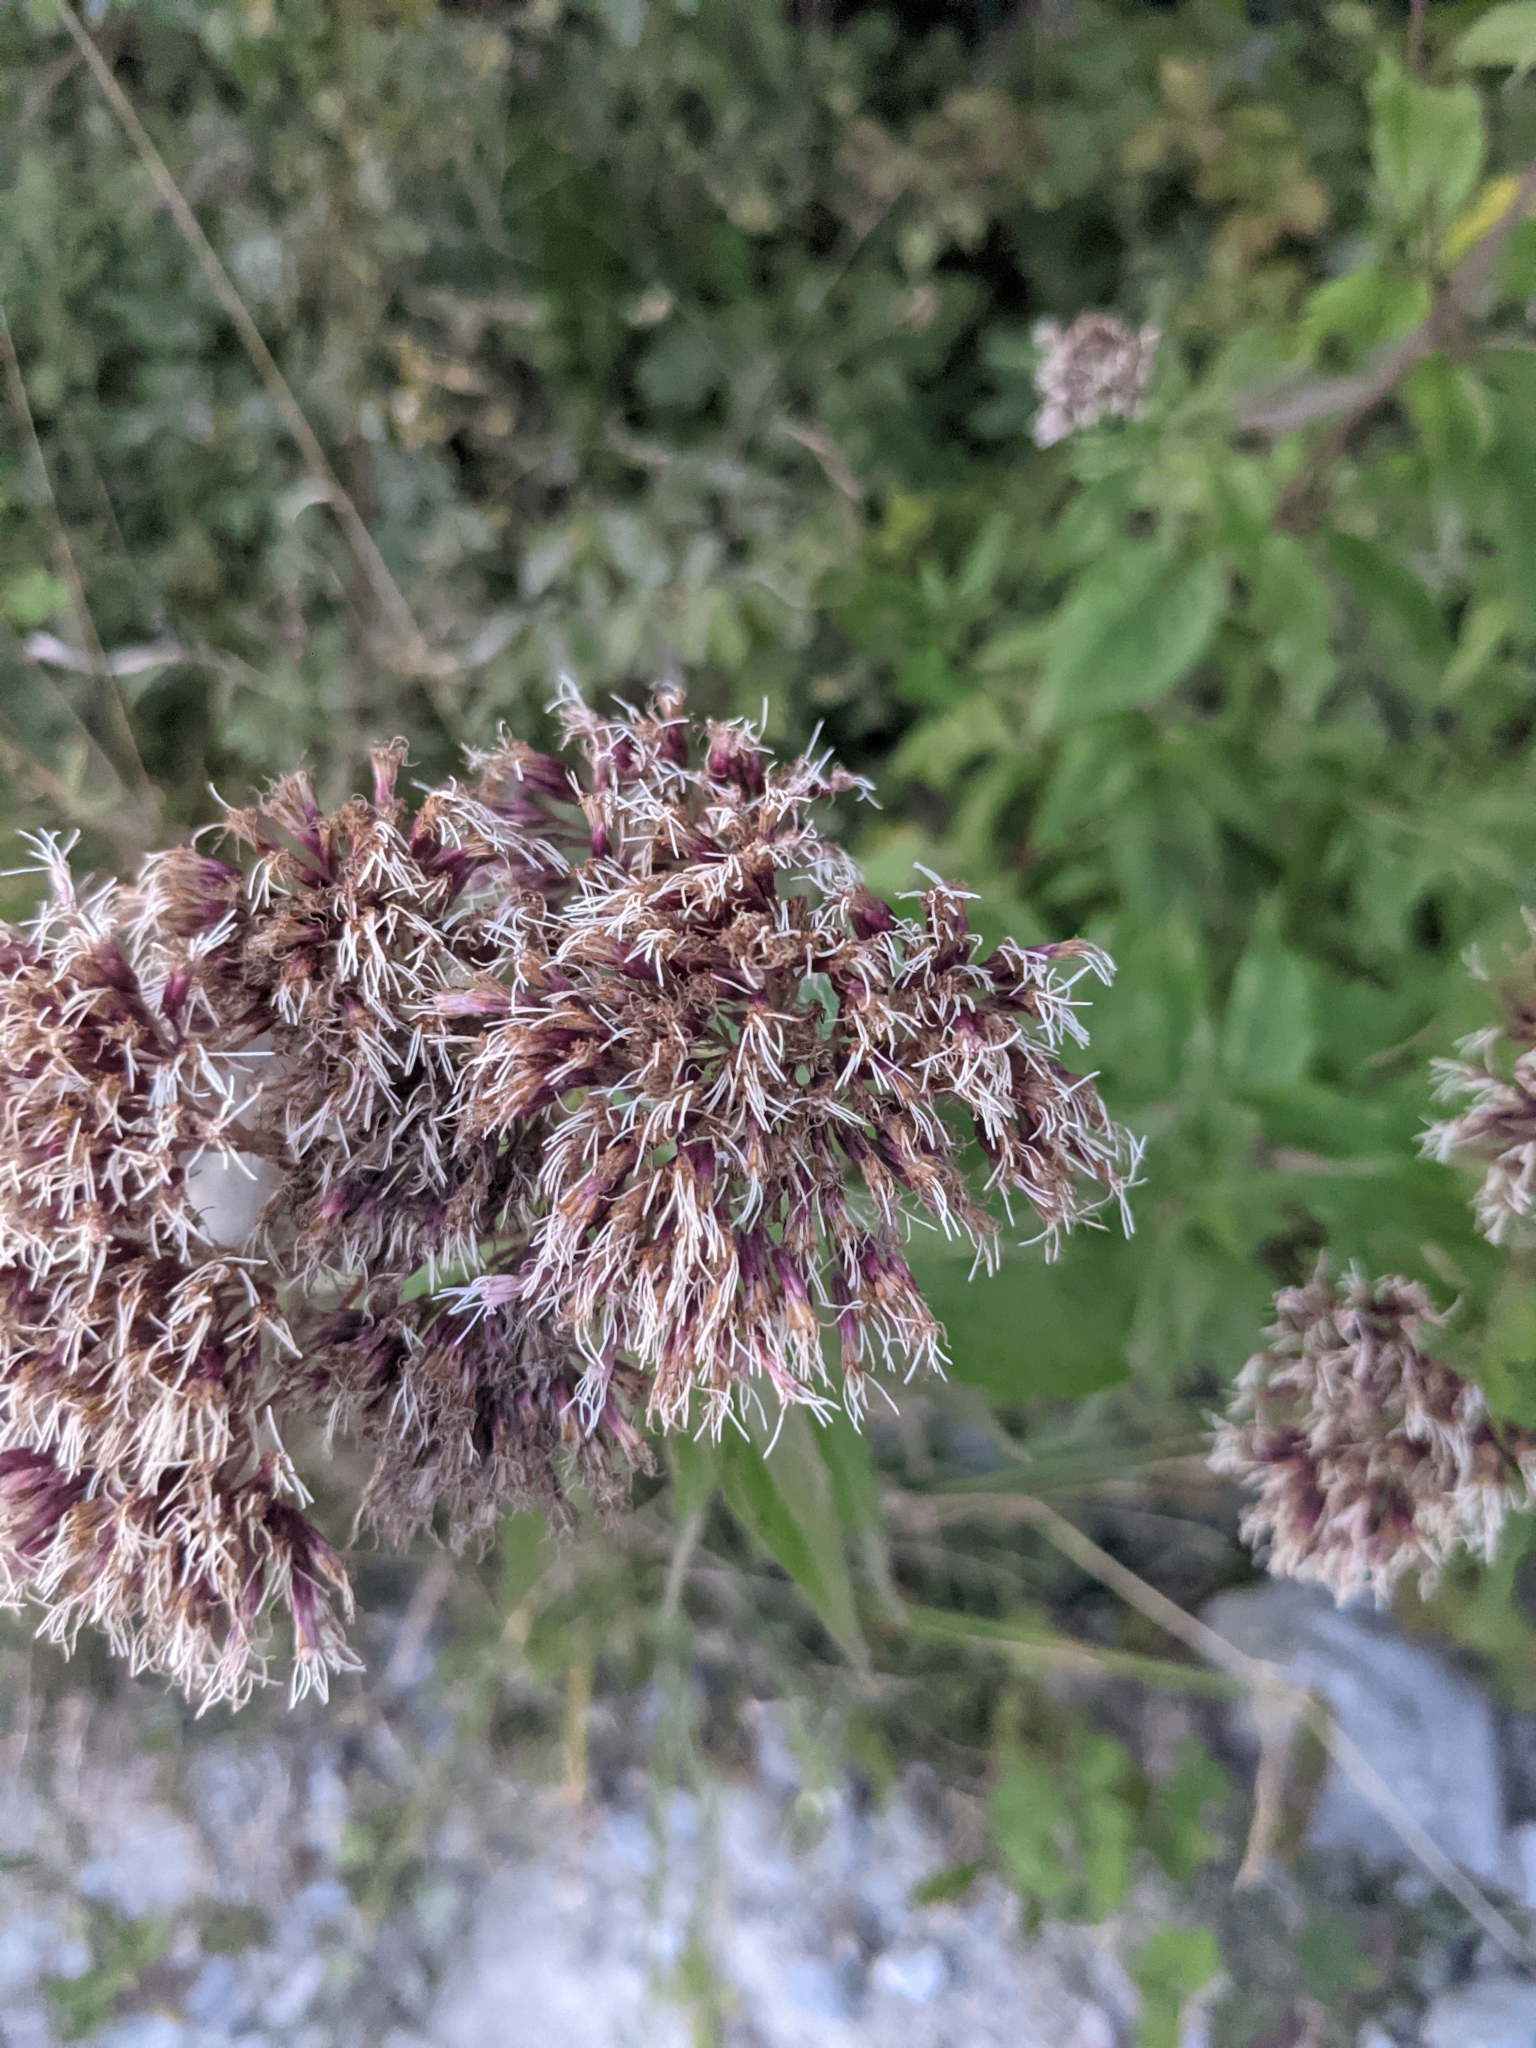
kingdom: Plantae
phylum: Tracheophyta
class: Magnoliopsida
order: Asterales
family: Asteraceae
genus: Eupatorium
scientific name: Eupatorium cannabinum
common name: Hemp-agrimony
